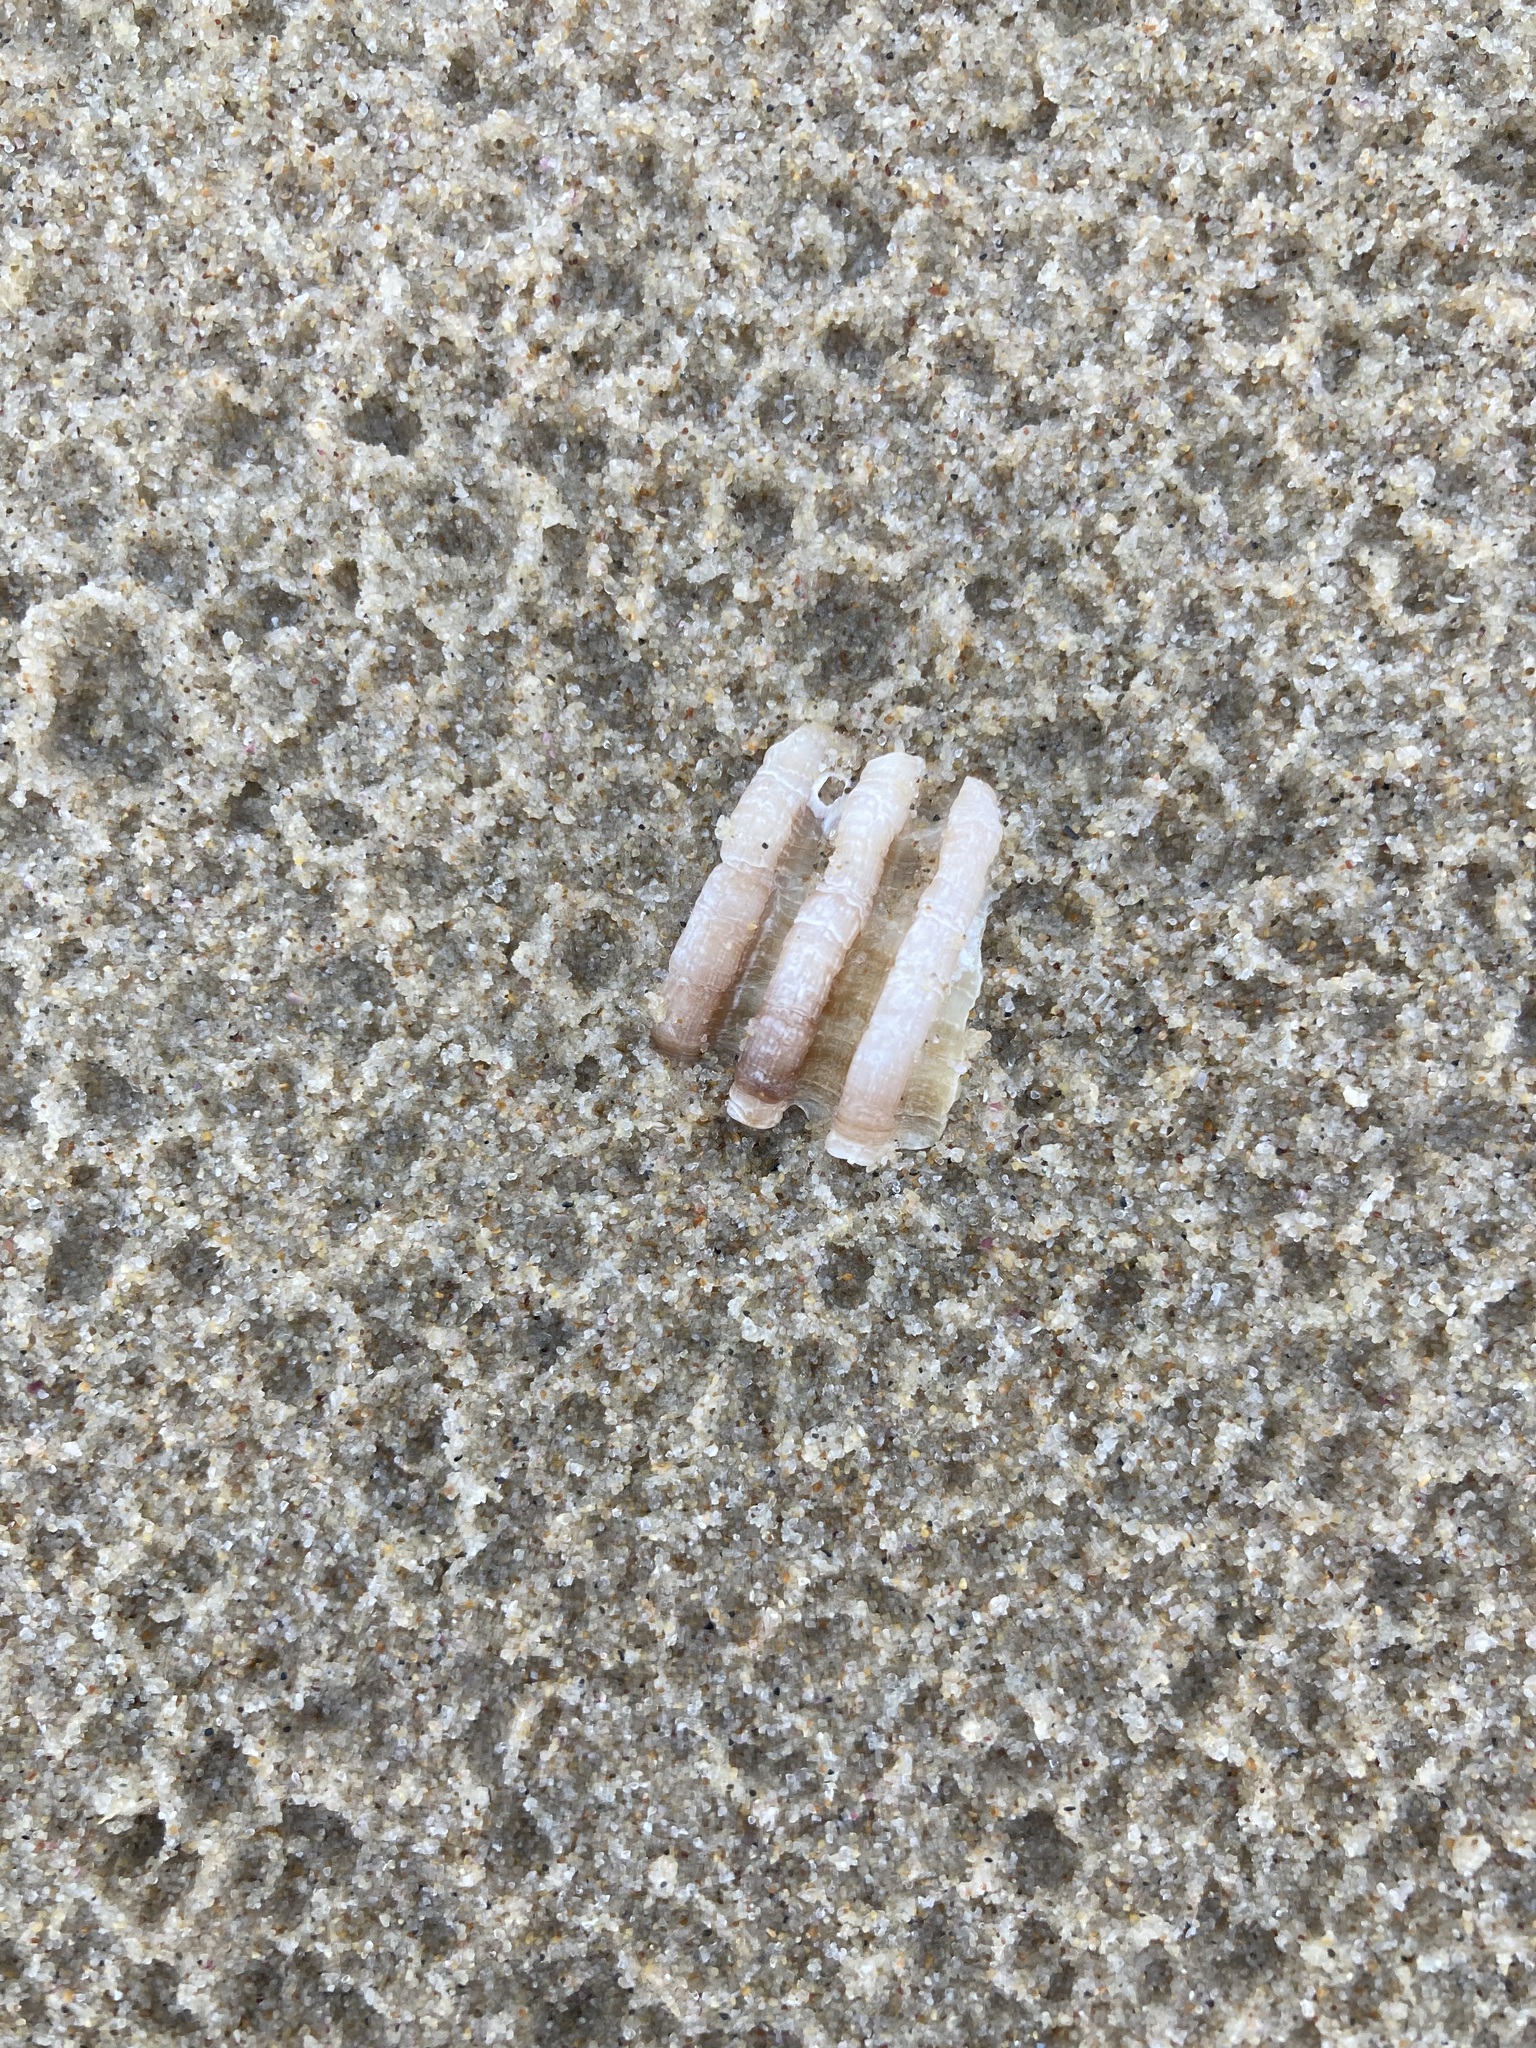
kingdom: Animalia
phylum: Mollusca
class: Gastropoda
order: Neogastropoda
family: Muricidae
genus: Dicathais
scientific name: Dicathais orbita
